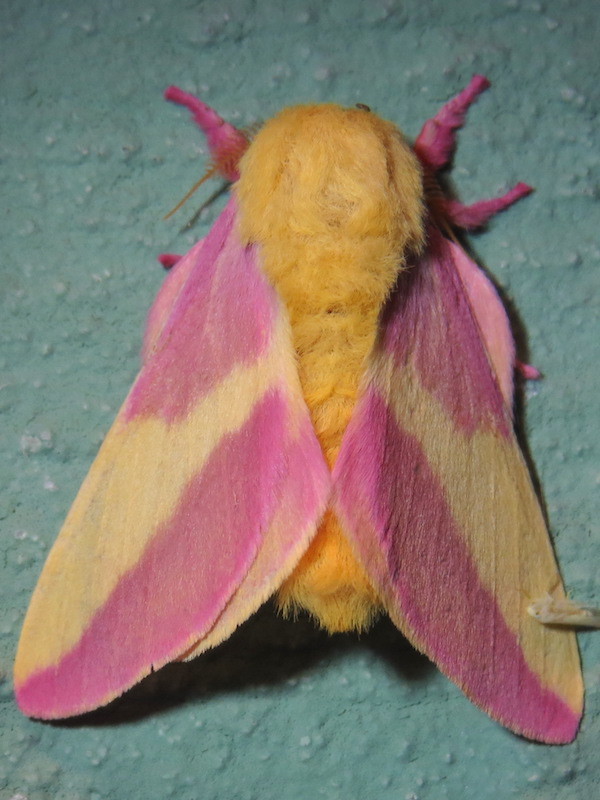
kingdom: Animalia
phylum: Arthropoda
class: Insecta
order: Lepidoptera
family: Saturniidae
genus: Dryocampa
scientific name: Dryocampa rubicunda
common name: Rosy maple moth
